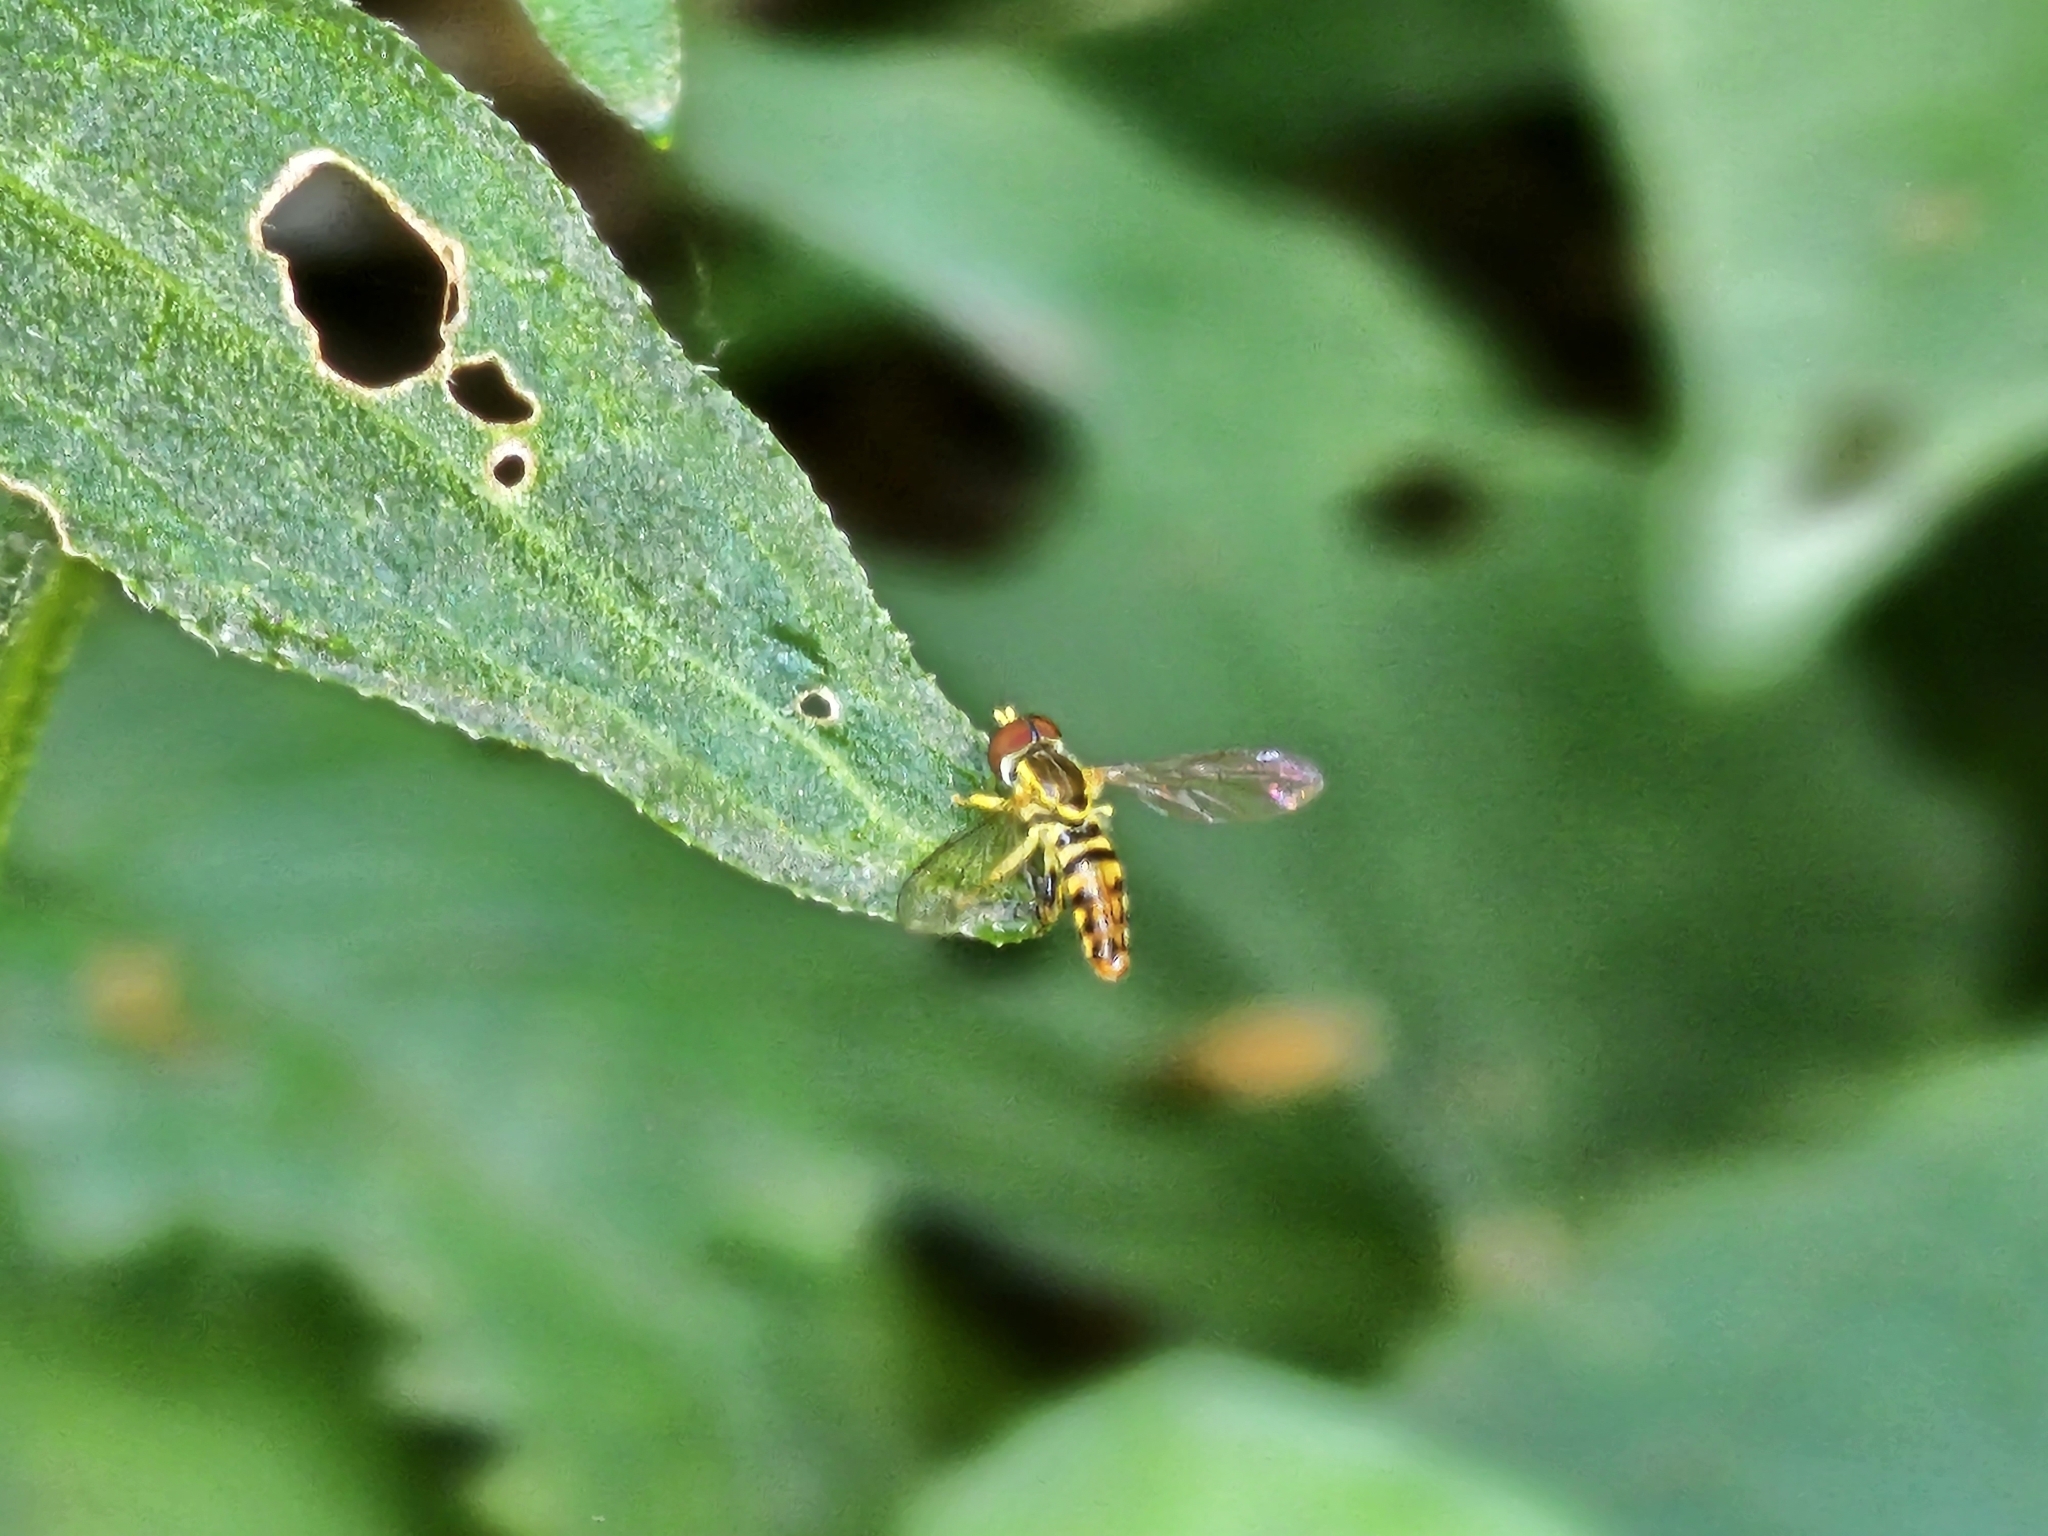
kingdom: Animalia
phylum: Arthropoda
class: Insecta
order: Diptera
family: Syrphidae
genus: Toxomerus
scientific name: Toxomerus geminatus
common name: Eastern calligrapher
